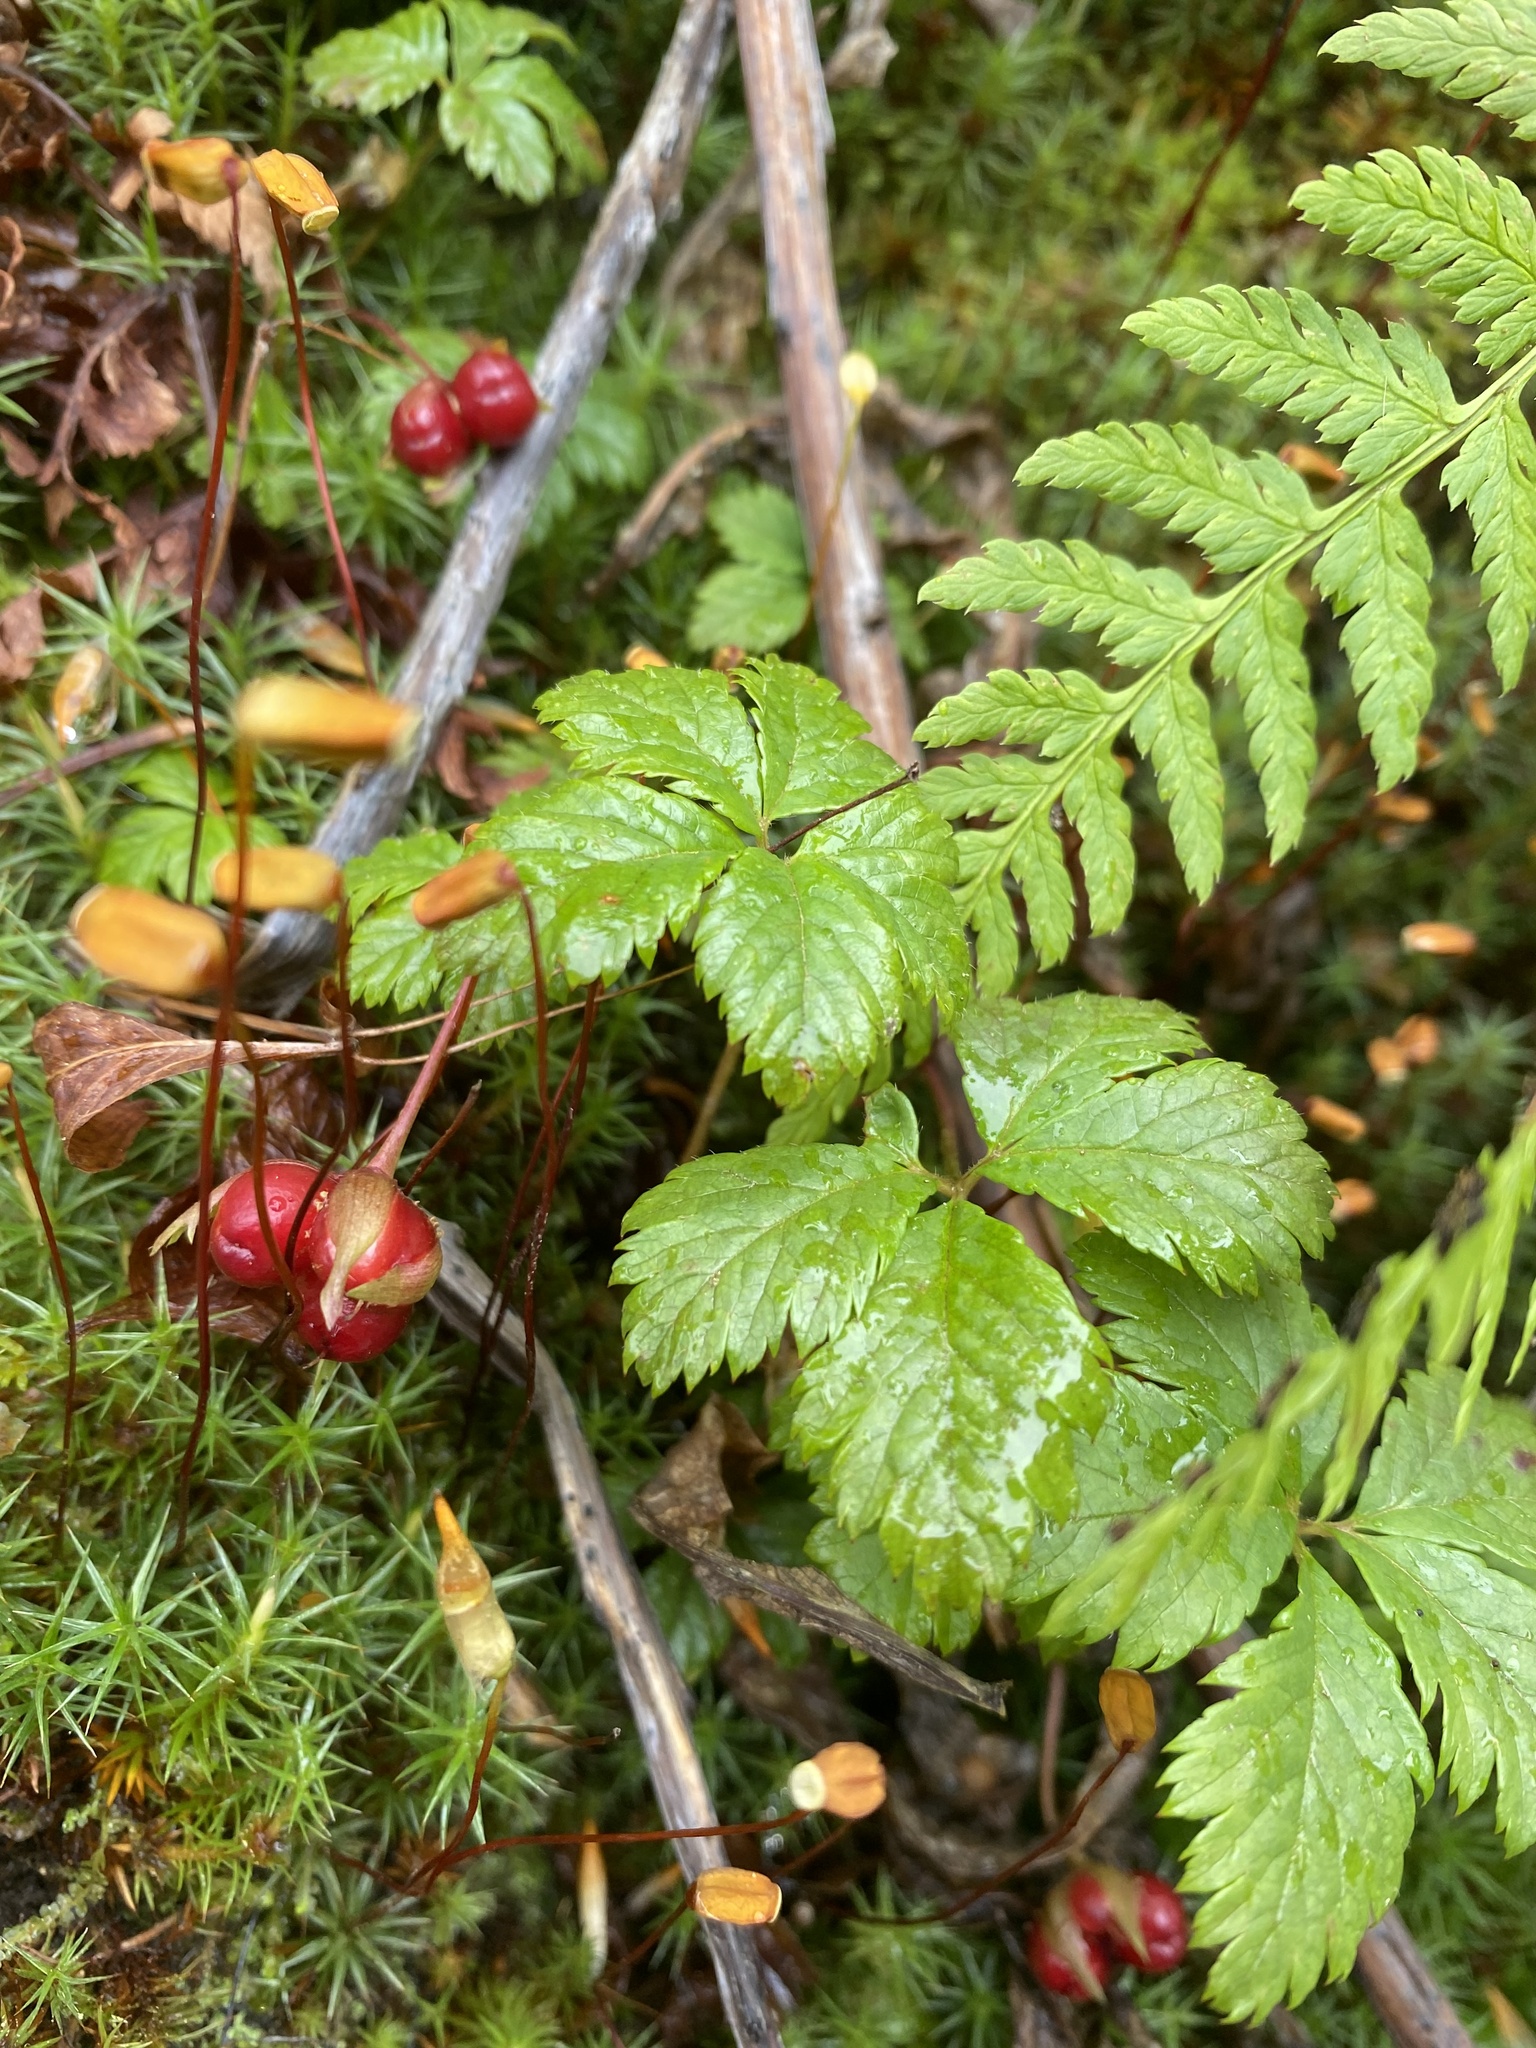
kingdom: Plantae
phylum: Tracheophyta
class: Magnoliopsida
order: Rosales
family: Rosaceae
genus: Rubus
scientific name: Rubus pedatus
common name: Creeping raspberry
